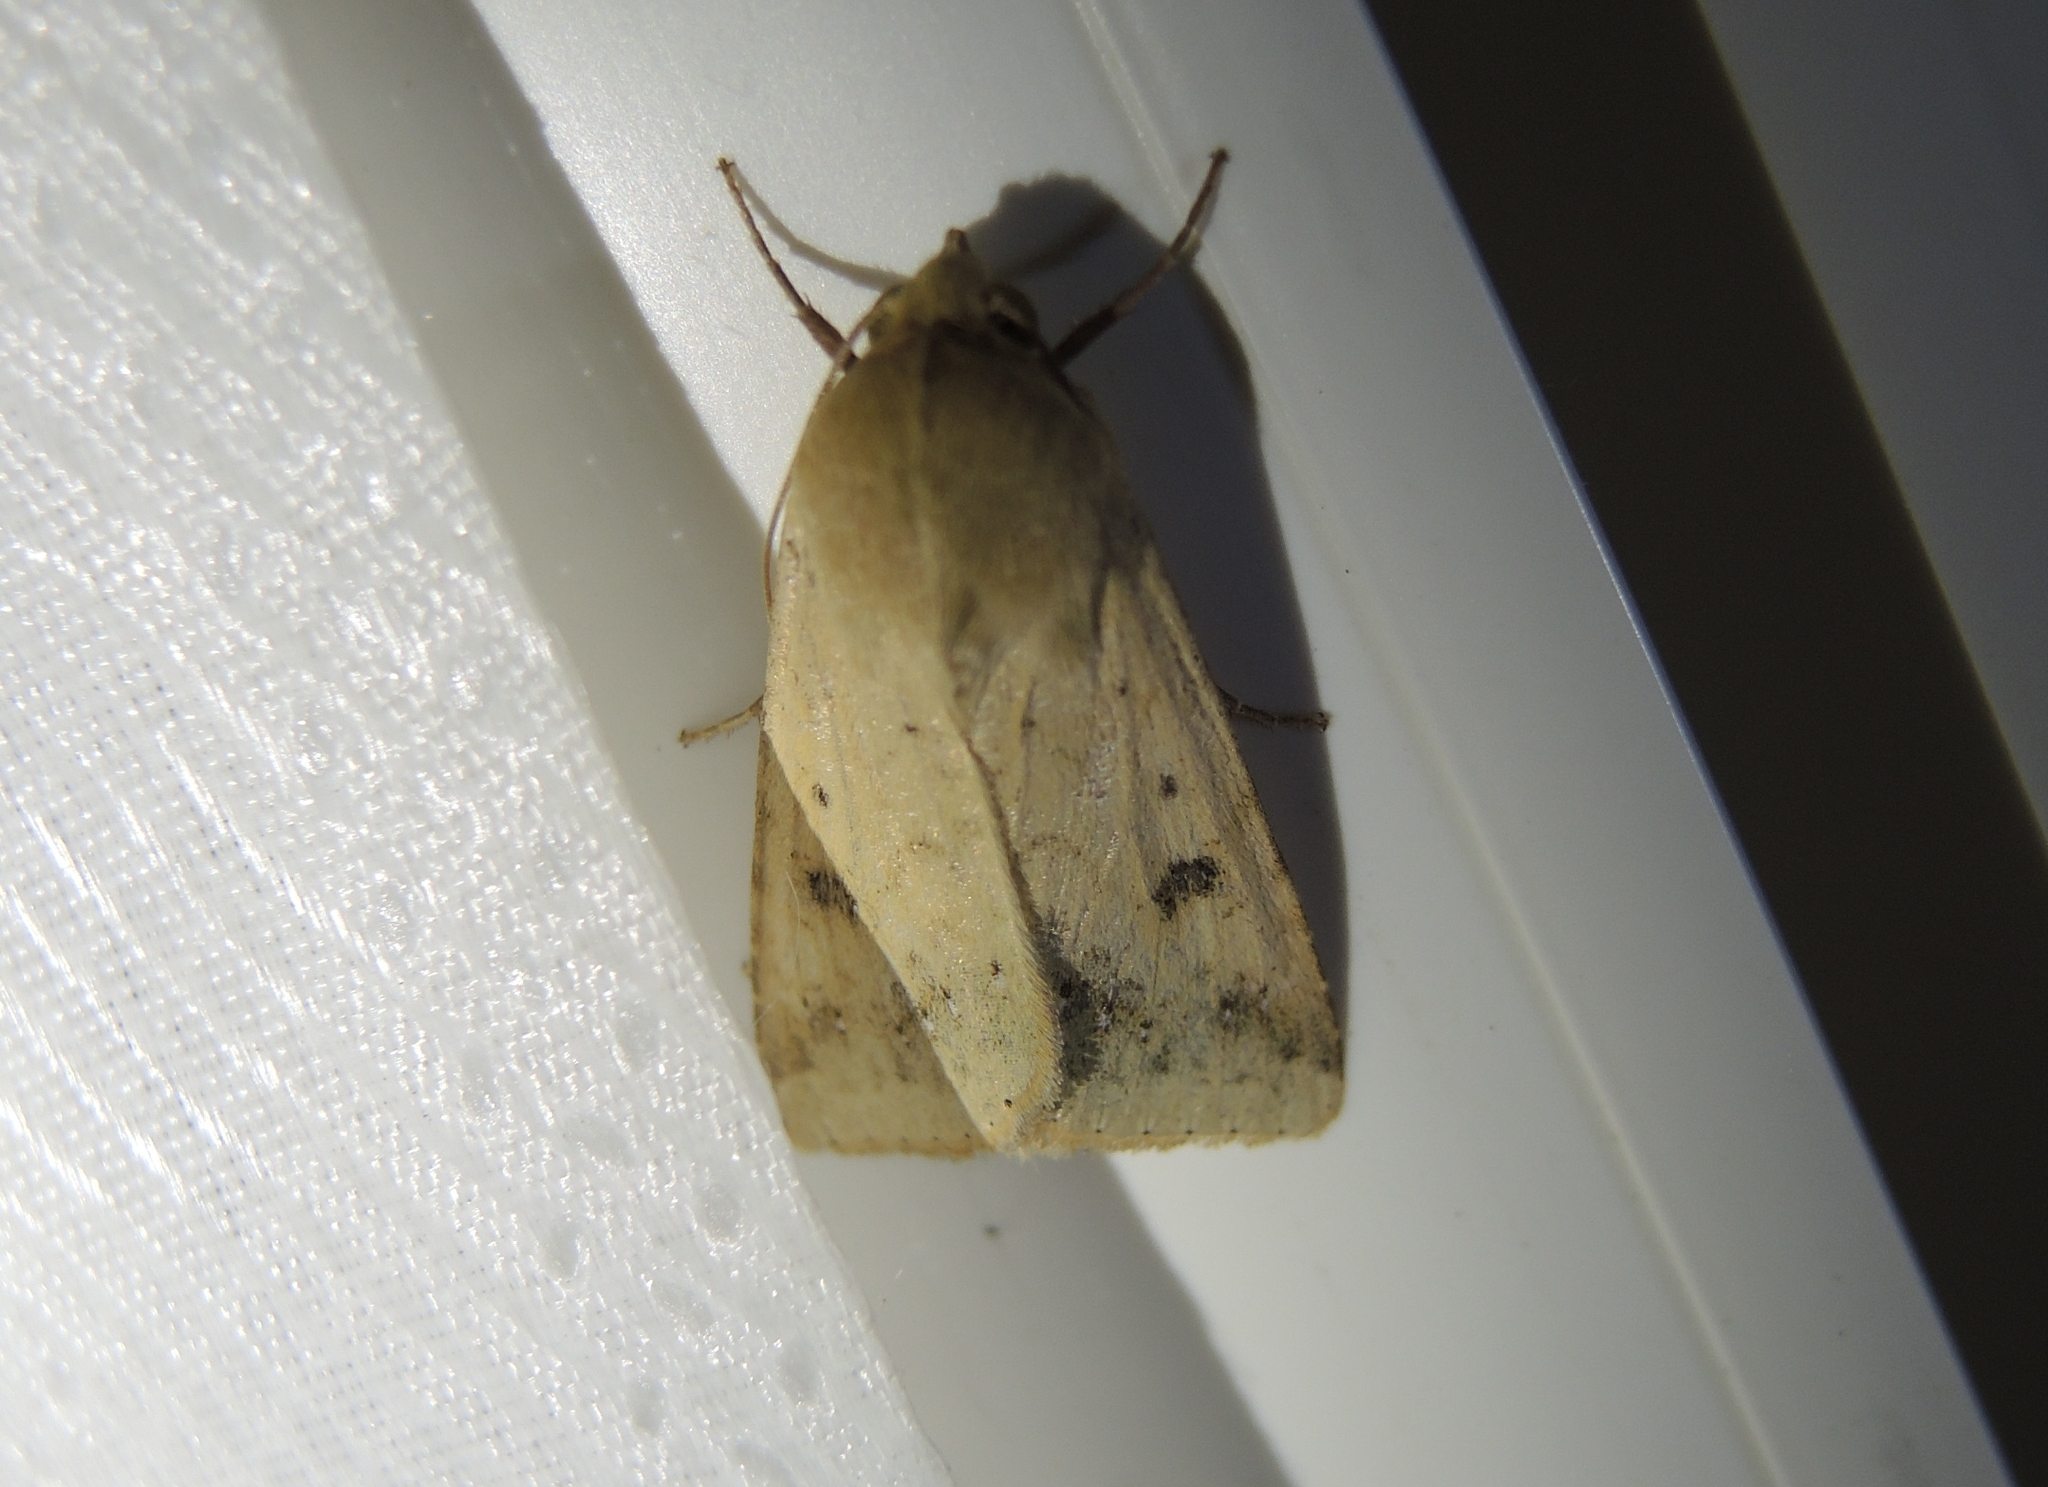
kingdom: Animalia
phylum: Arthropoda
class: Insecta
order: Lepidoptera
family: Noctuidae
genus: Helicoverpa
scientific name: Helicoverpa armigera
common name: Cotton bollworm
